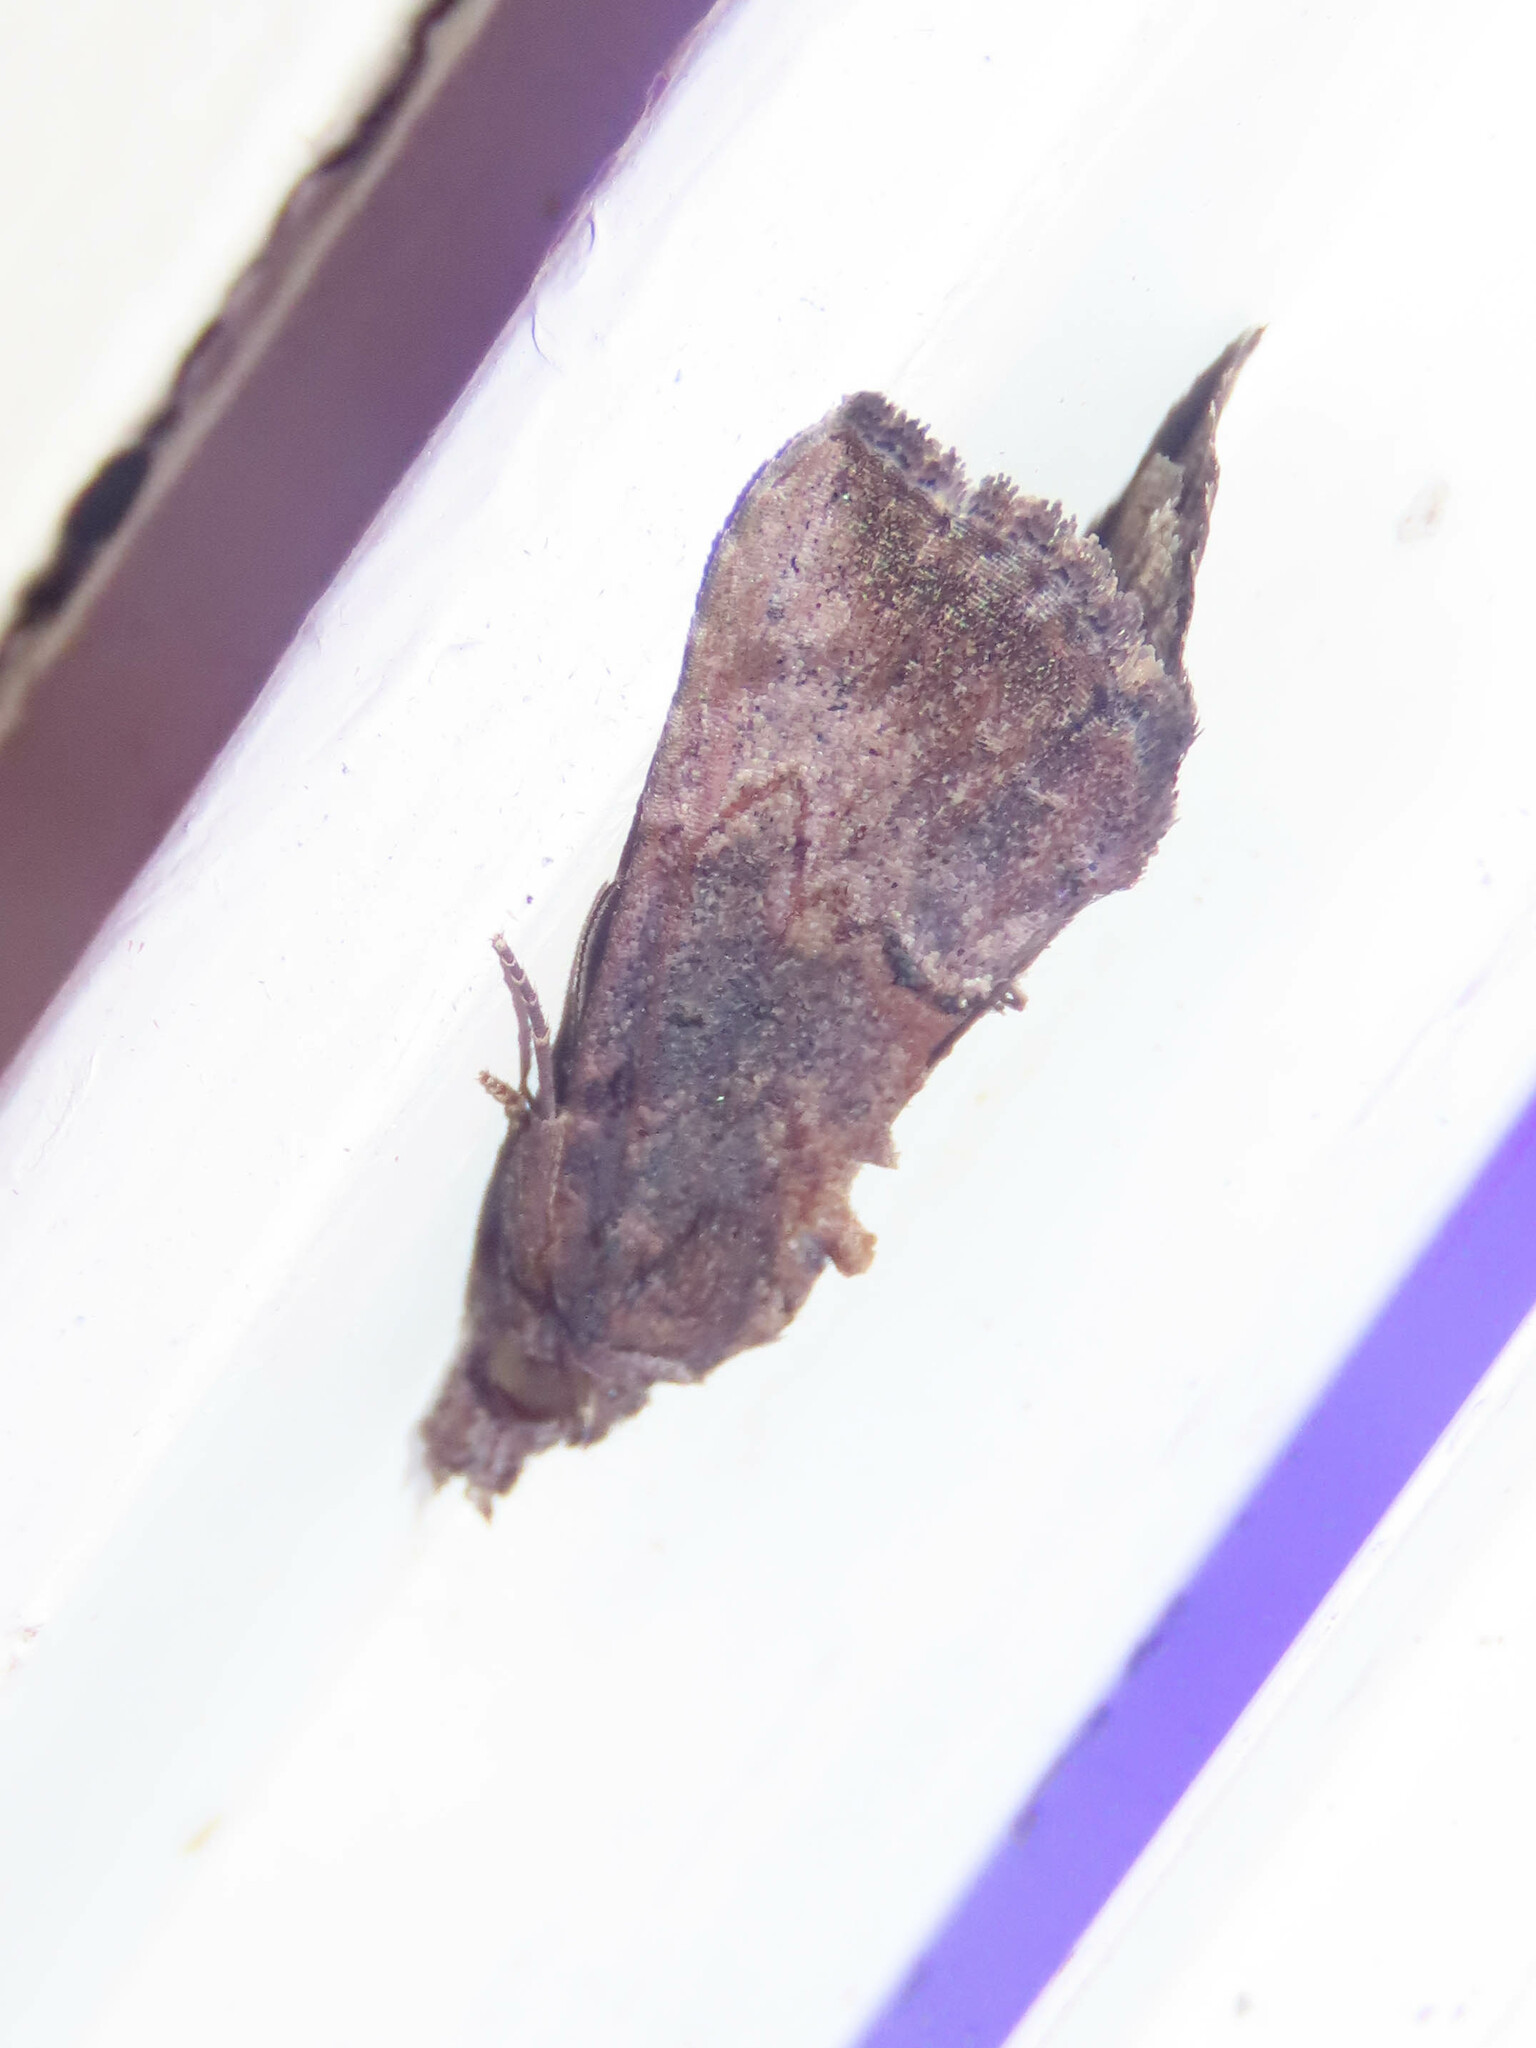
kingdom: Animalia
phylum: Arthropoda
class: Insecta
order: Lepidoptera
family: Erebidae
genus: Hypena
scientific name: Hypena scabra
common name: Green cloverworm
